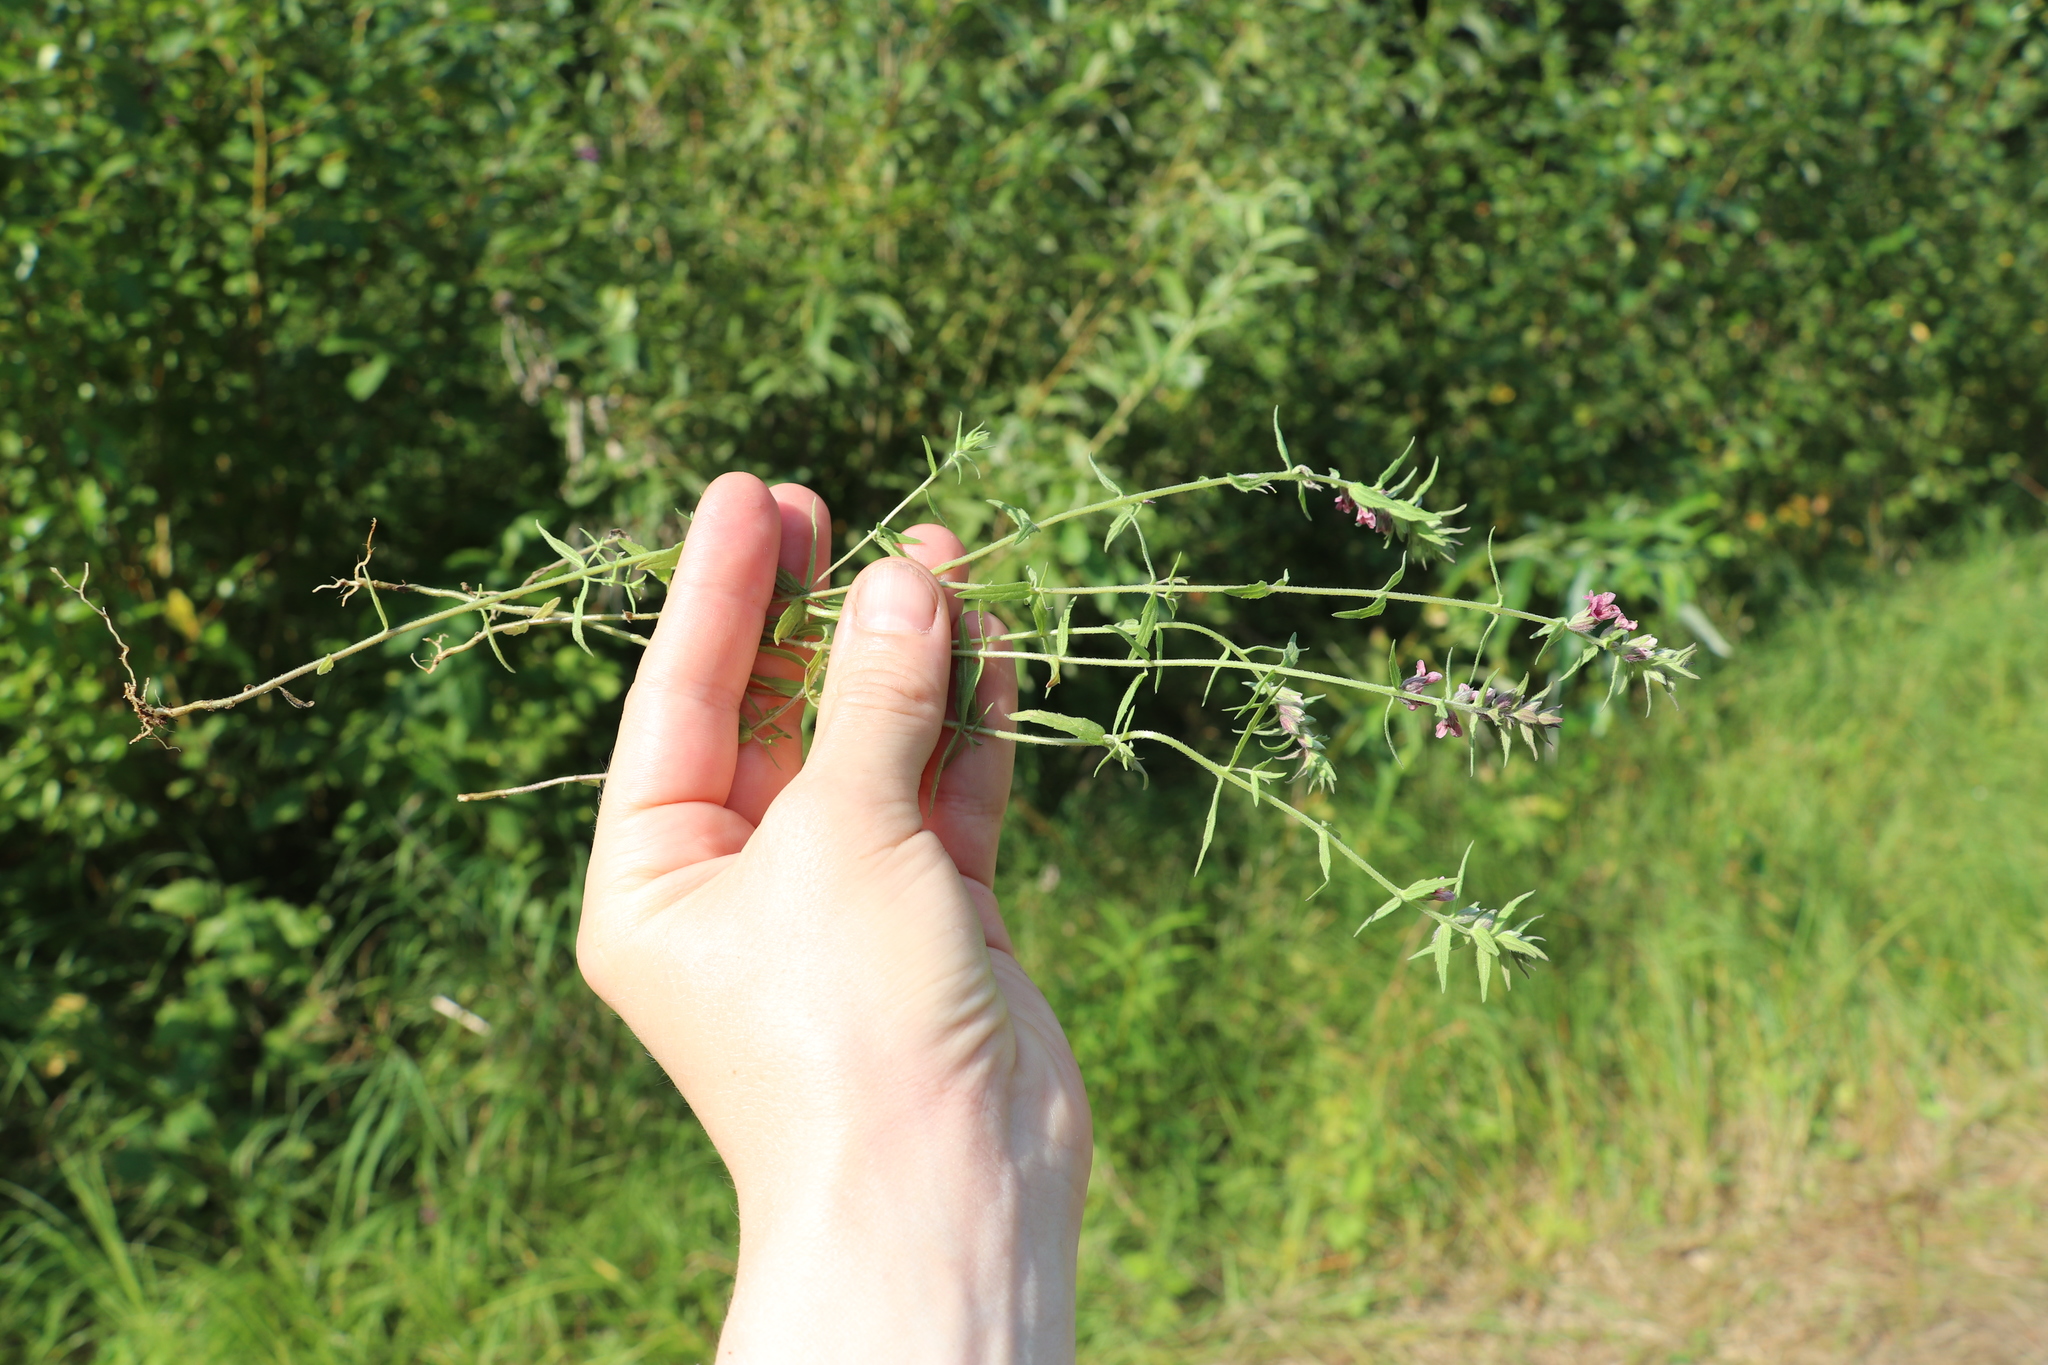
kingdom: Plantae
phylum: Tracheophyta
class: Magnoliopsida
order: Lamiales
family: Orobanchaceae
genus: Odontites
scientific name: Odontites vulgaris
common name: Broomrape
